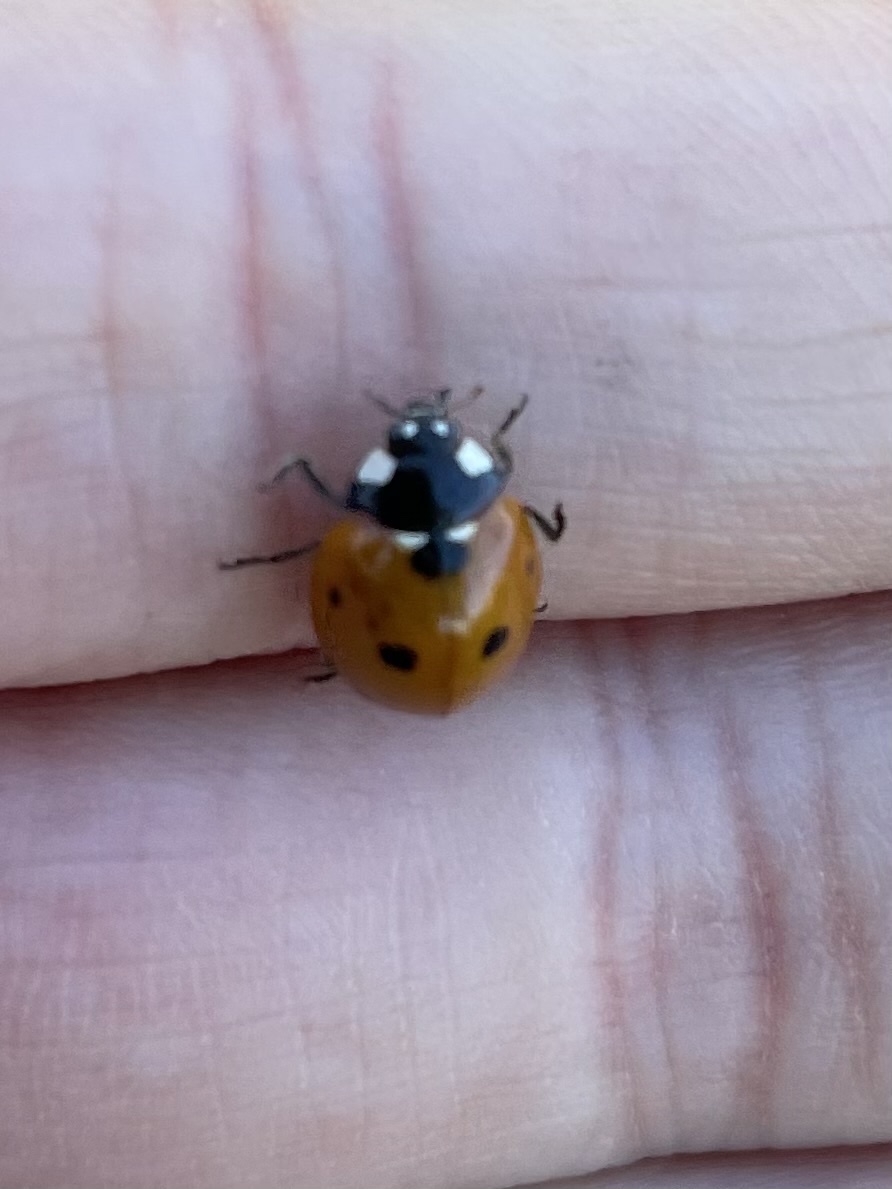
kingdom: Animalia
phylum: Arthropoda
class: Insecta
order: Coleoptera
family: Coccinellidae
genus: Coccinella
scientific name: Coccinella septempunctata
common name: Sevenspotted lady beetle
